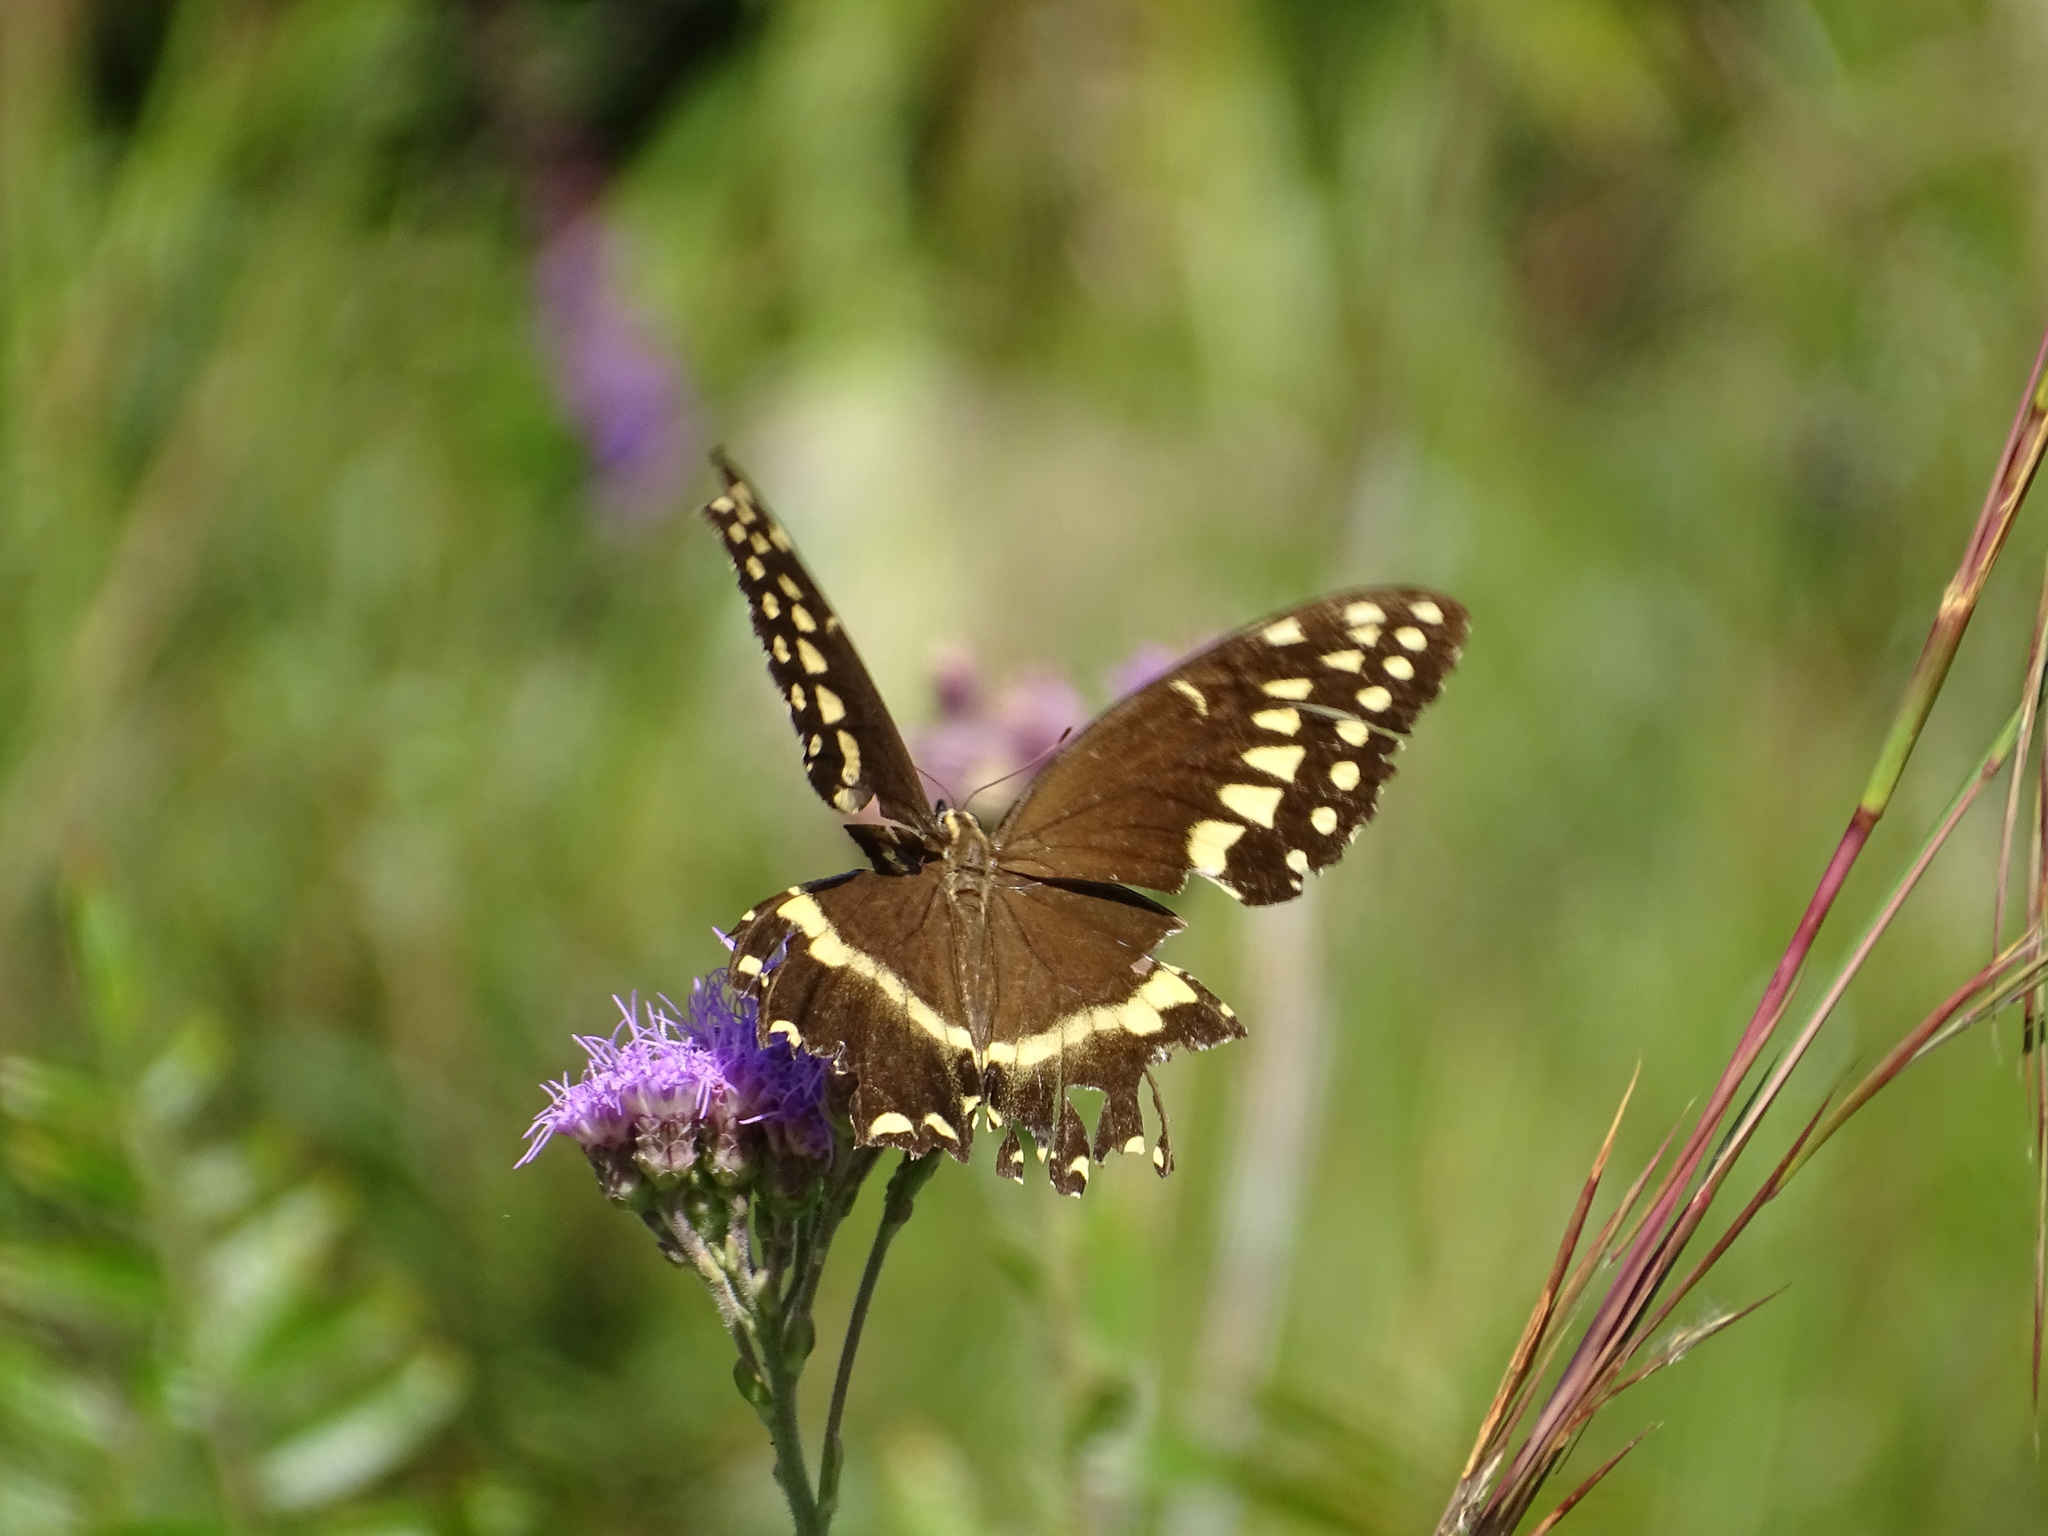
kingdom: Animalia
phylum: Arthropoda
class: Insecta
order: Lepidoptera
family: Papilionidae
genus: Papilio
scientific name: Papilio palamedes
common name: Palamedes swallowtail
